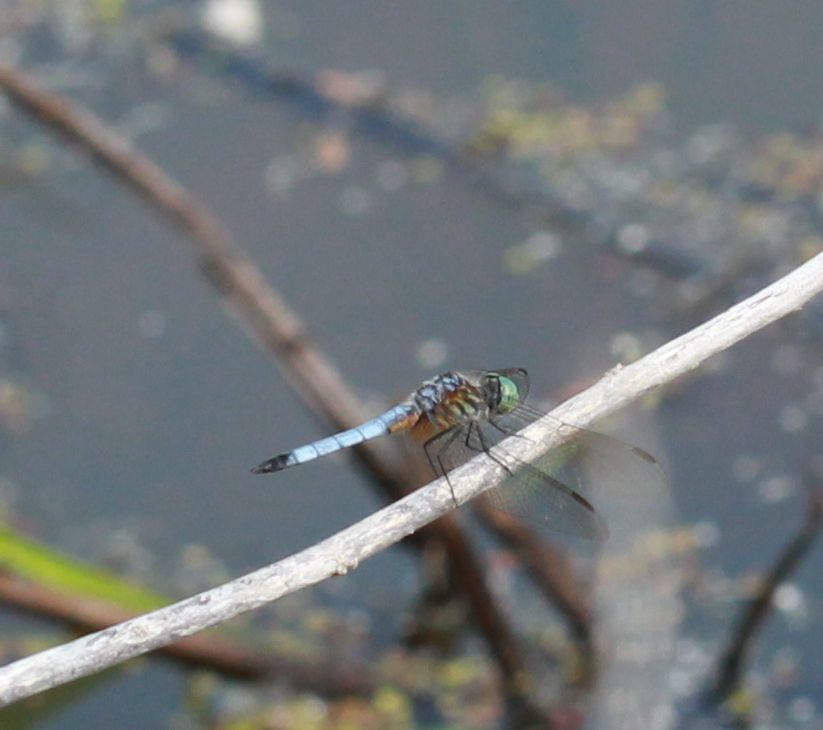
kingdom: Animalia
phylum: Arthropoda
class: Insecta
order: Odonata
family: Libellulidae
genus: Pachydiplax
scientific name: Pachydiplax longipennis
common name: Blue dasher
